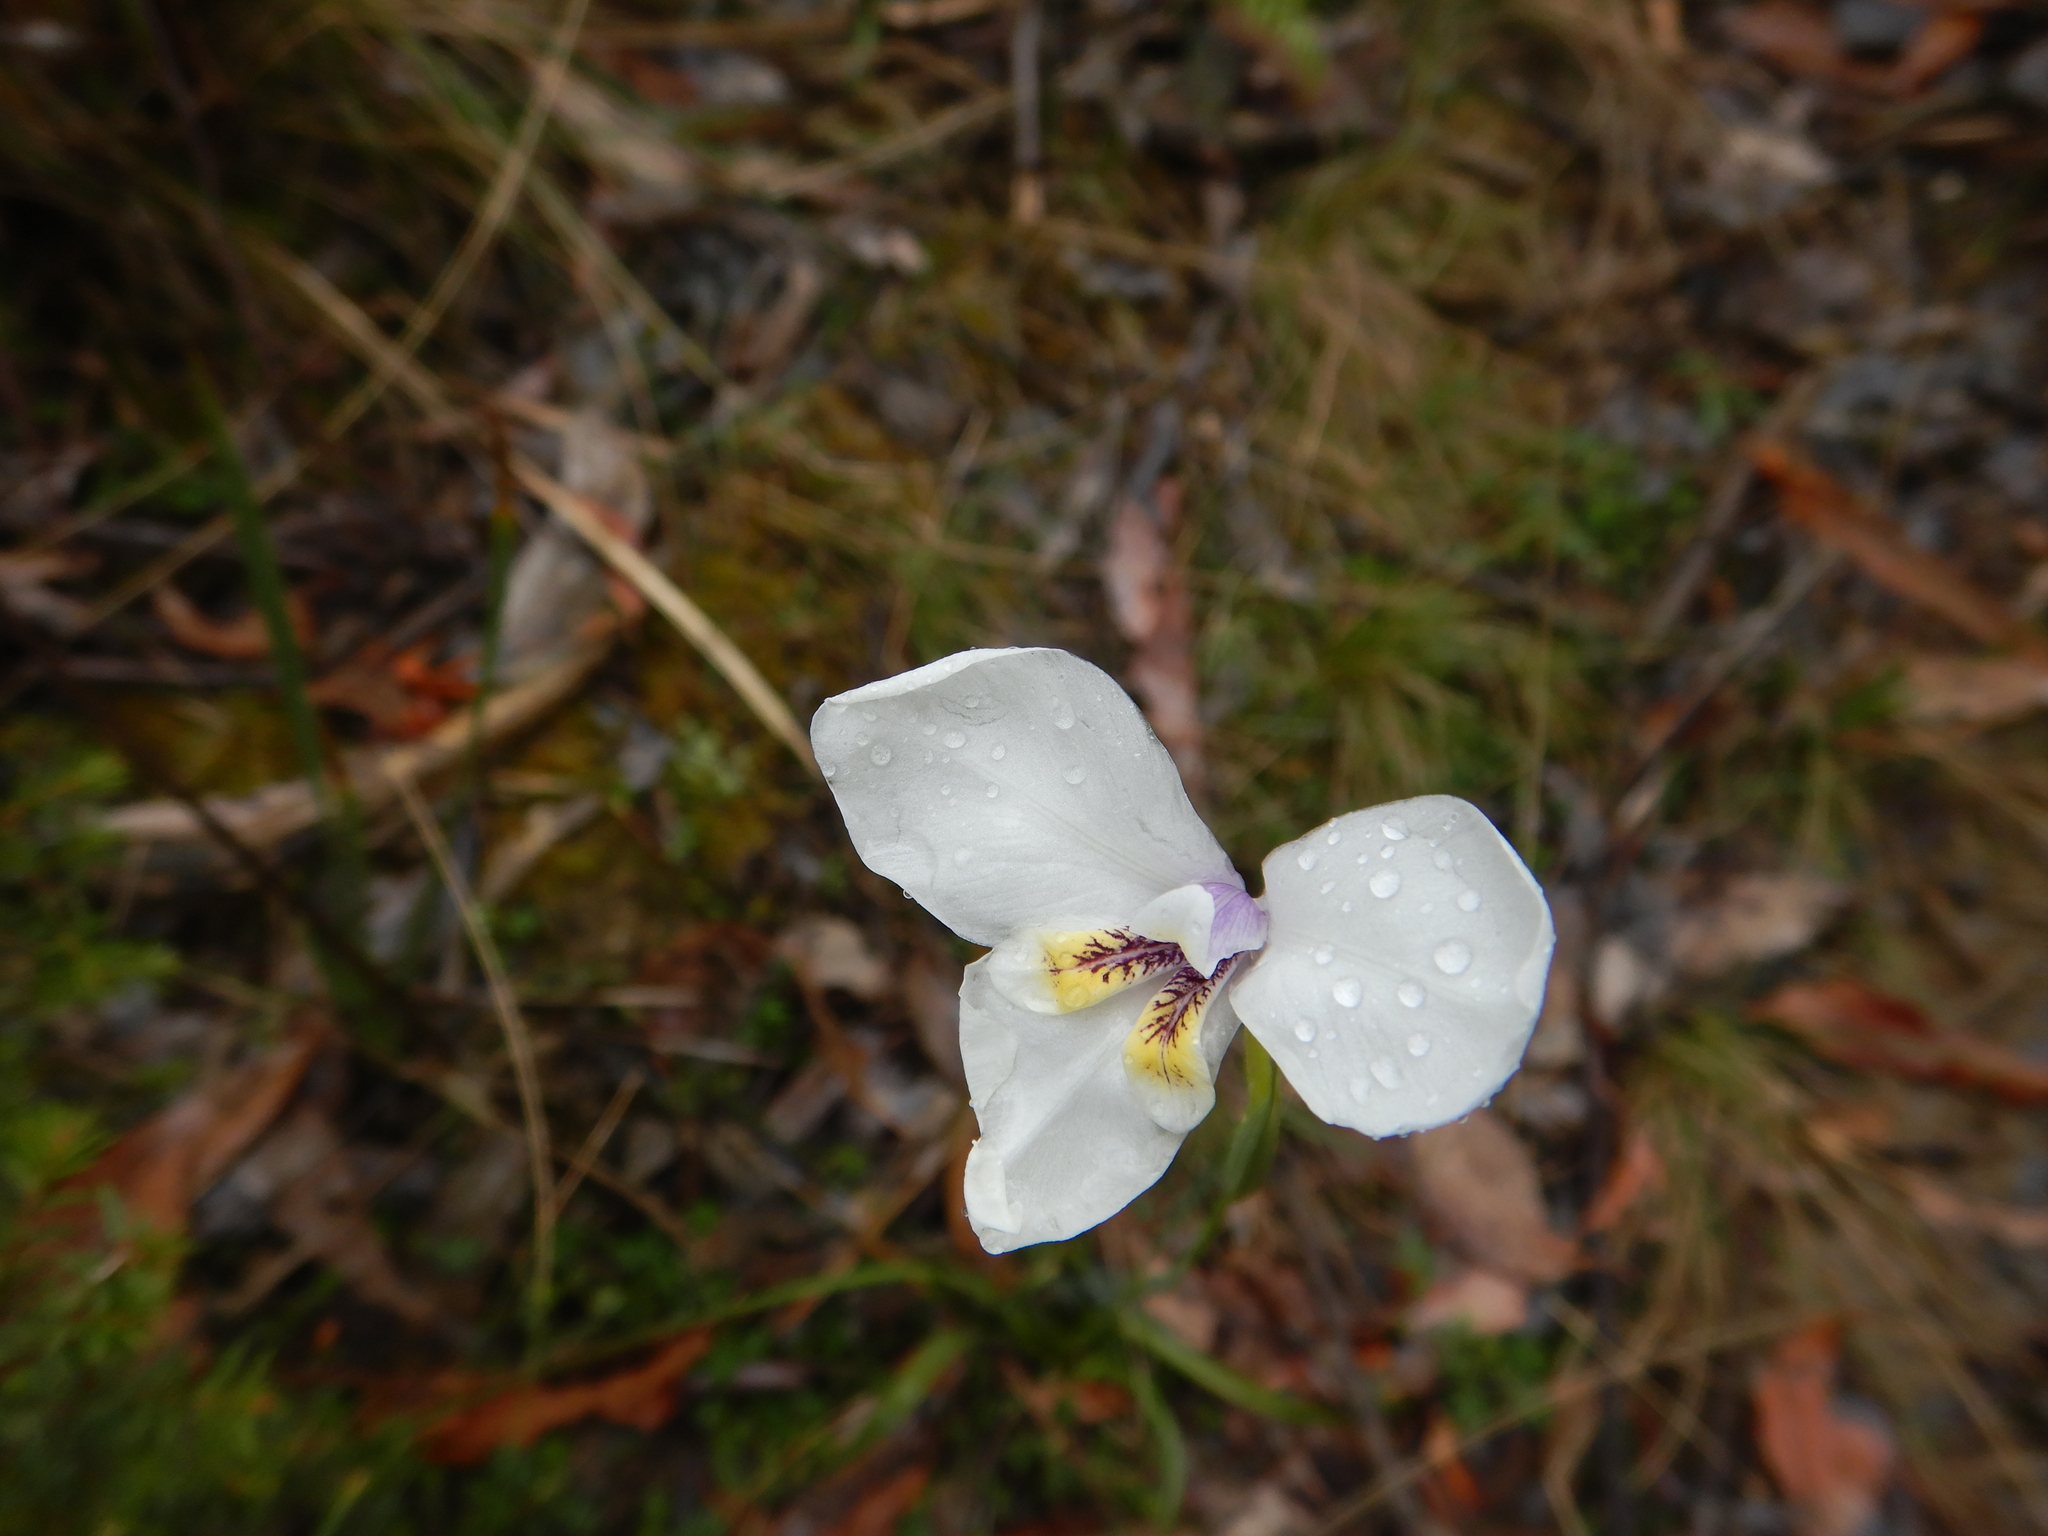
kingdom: Plantae
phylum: Tracheophyta
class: Liliopsida
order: Asparagales
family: Iridaceae
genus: Diplarrena
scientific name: Diplarrena moraea
